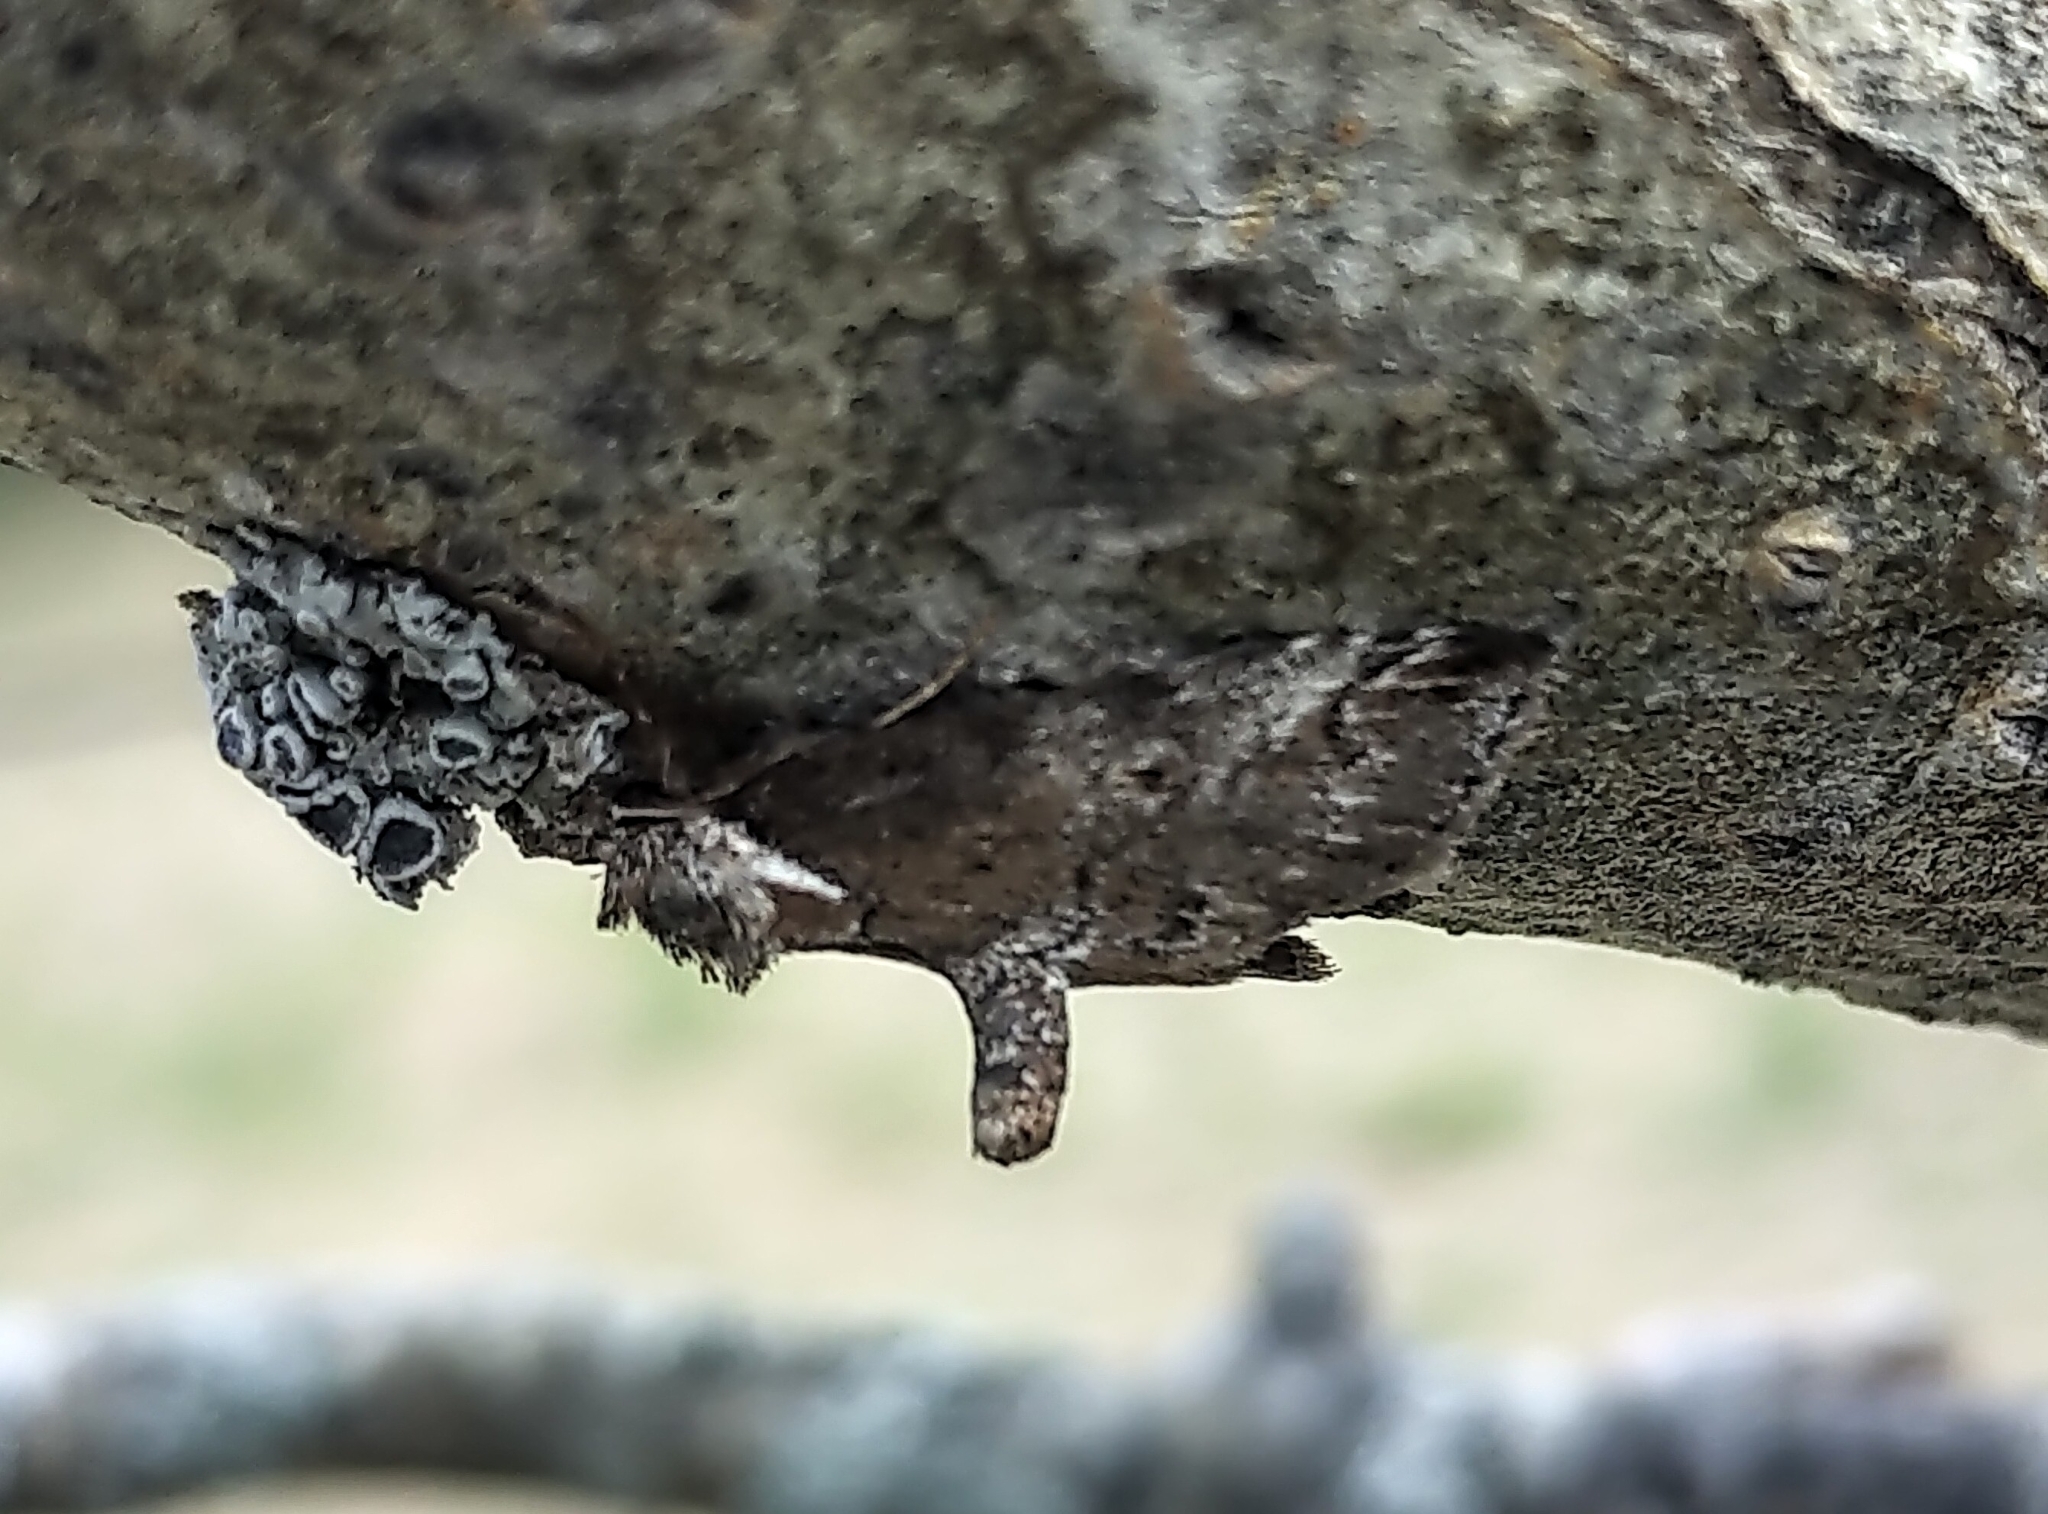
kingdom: Animalia
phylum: Arthropoda
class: Insecta
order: Lepidoptera
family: Nolidae
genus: Baileya
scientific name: Baileya ophthalmica
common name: Eyed baileya moth
